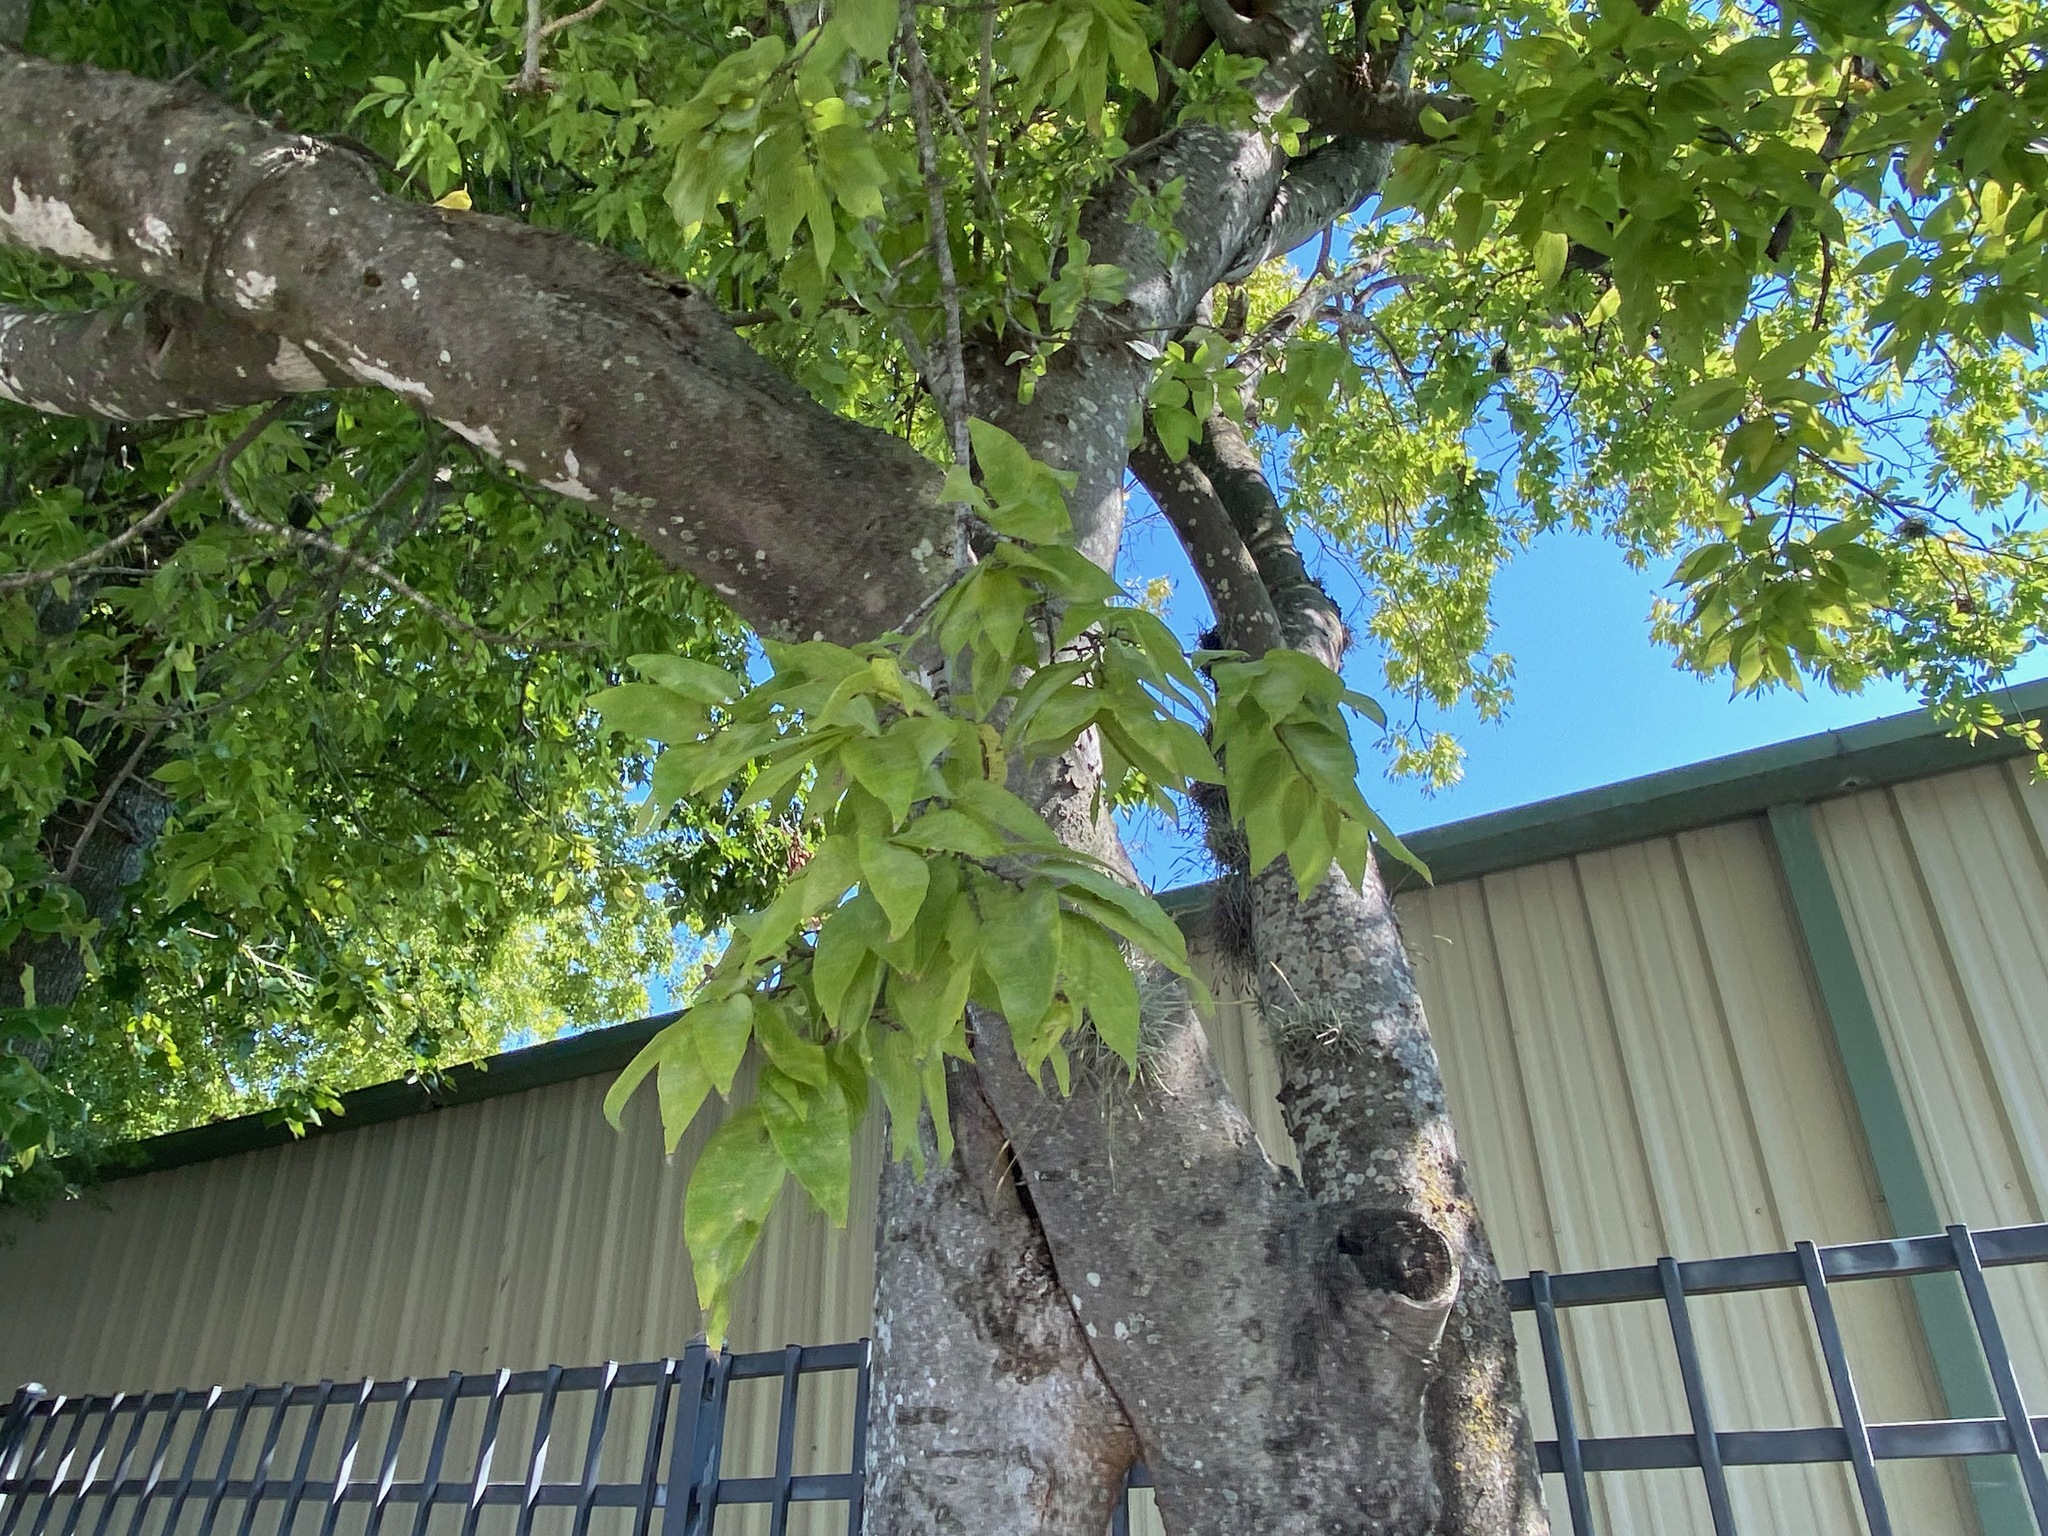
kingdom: Plantae
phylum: Tracheophyta
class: Magnoliopsida
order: Rosales
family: Cannabaceae
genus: Celtis
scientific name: Celtis laevigata
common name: Sugarberry
